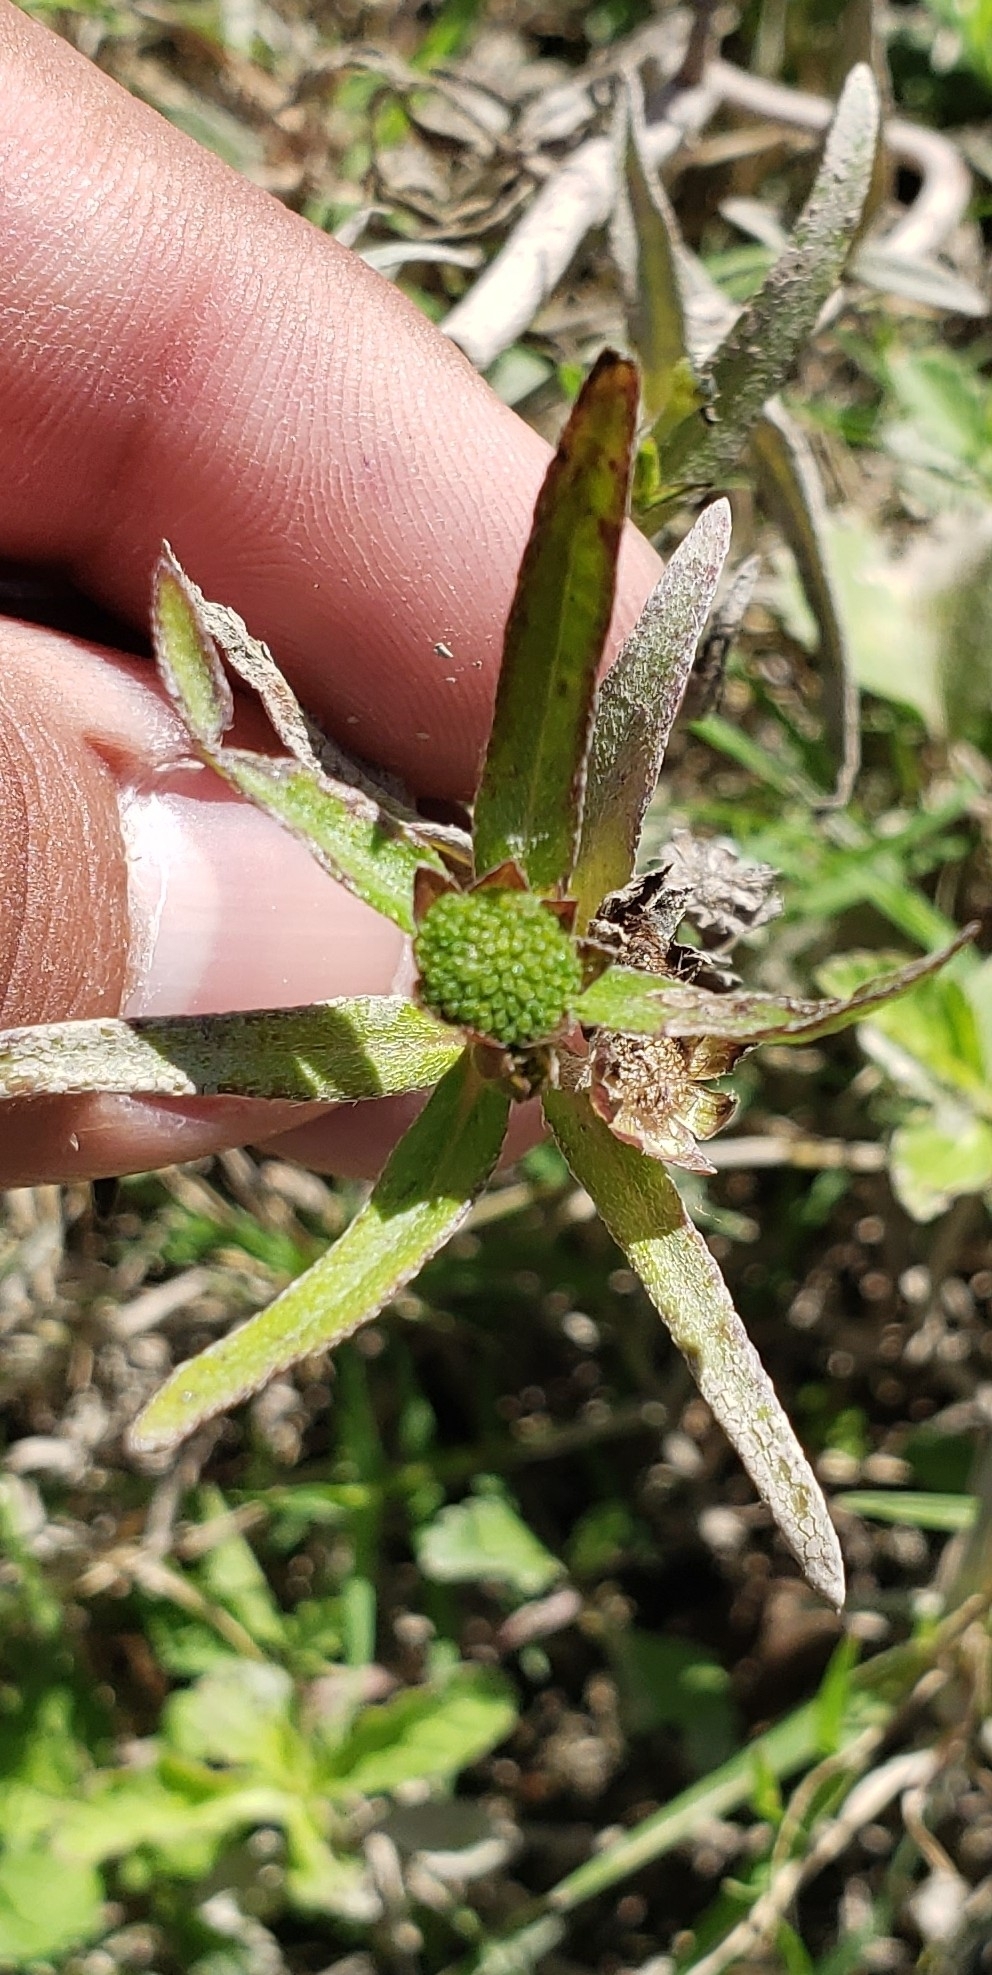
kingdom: Plantae
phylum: Tracheophyta
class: Magnoliopsida
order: Asterales
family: Asteraceae
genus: Eclipta
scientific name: Eclipta prostrata
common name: False daisy
